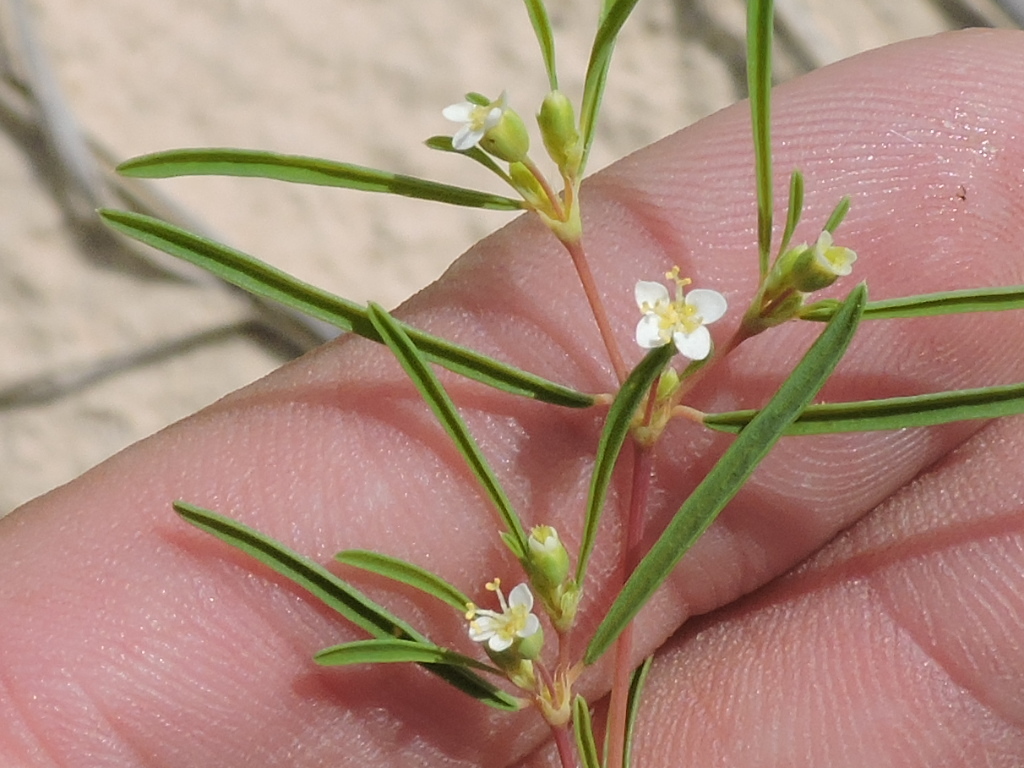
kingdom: Plantae
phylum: Tracheophyta
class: Magnoliopsida
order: Malpighiales
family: Euphorbiaceae
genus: Euphorbia
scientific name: Euphorbia missurica
